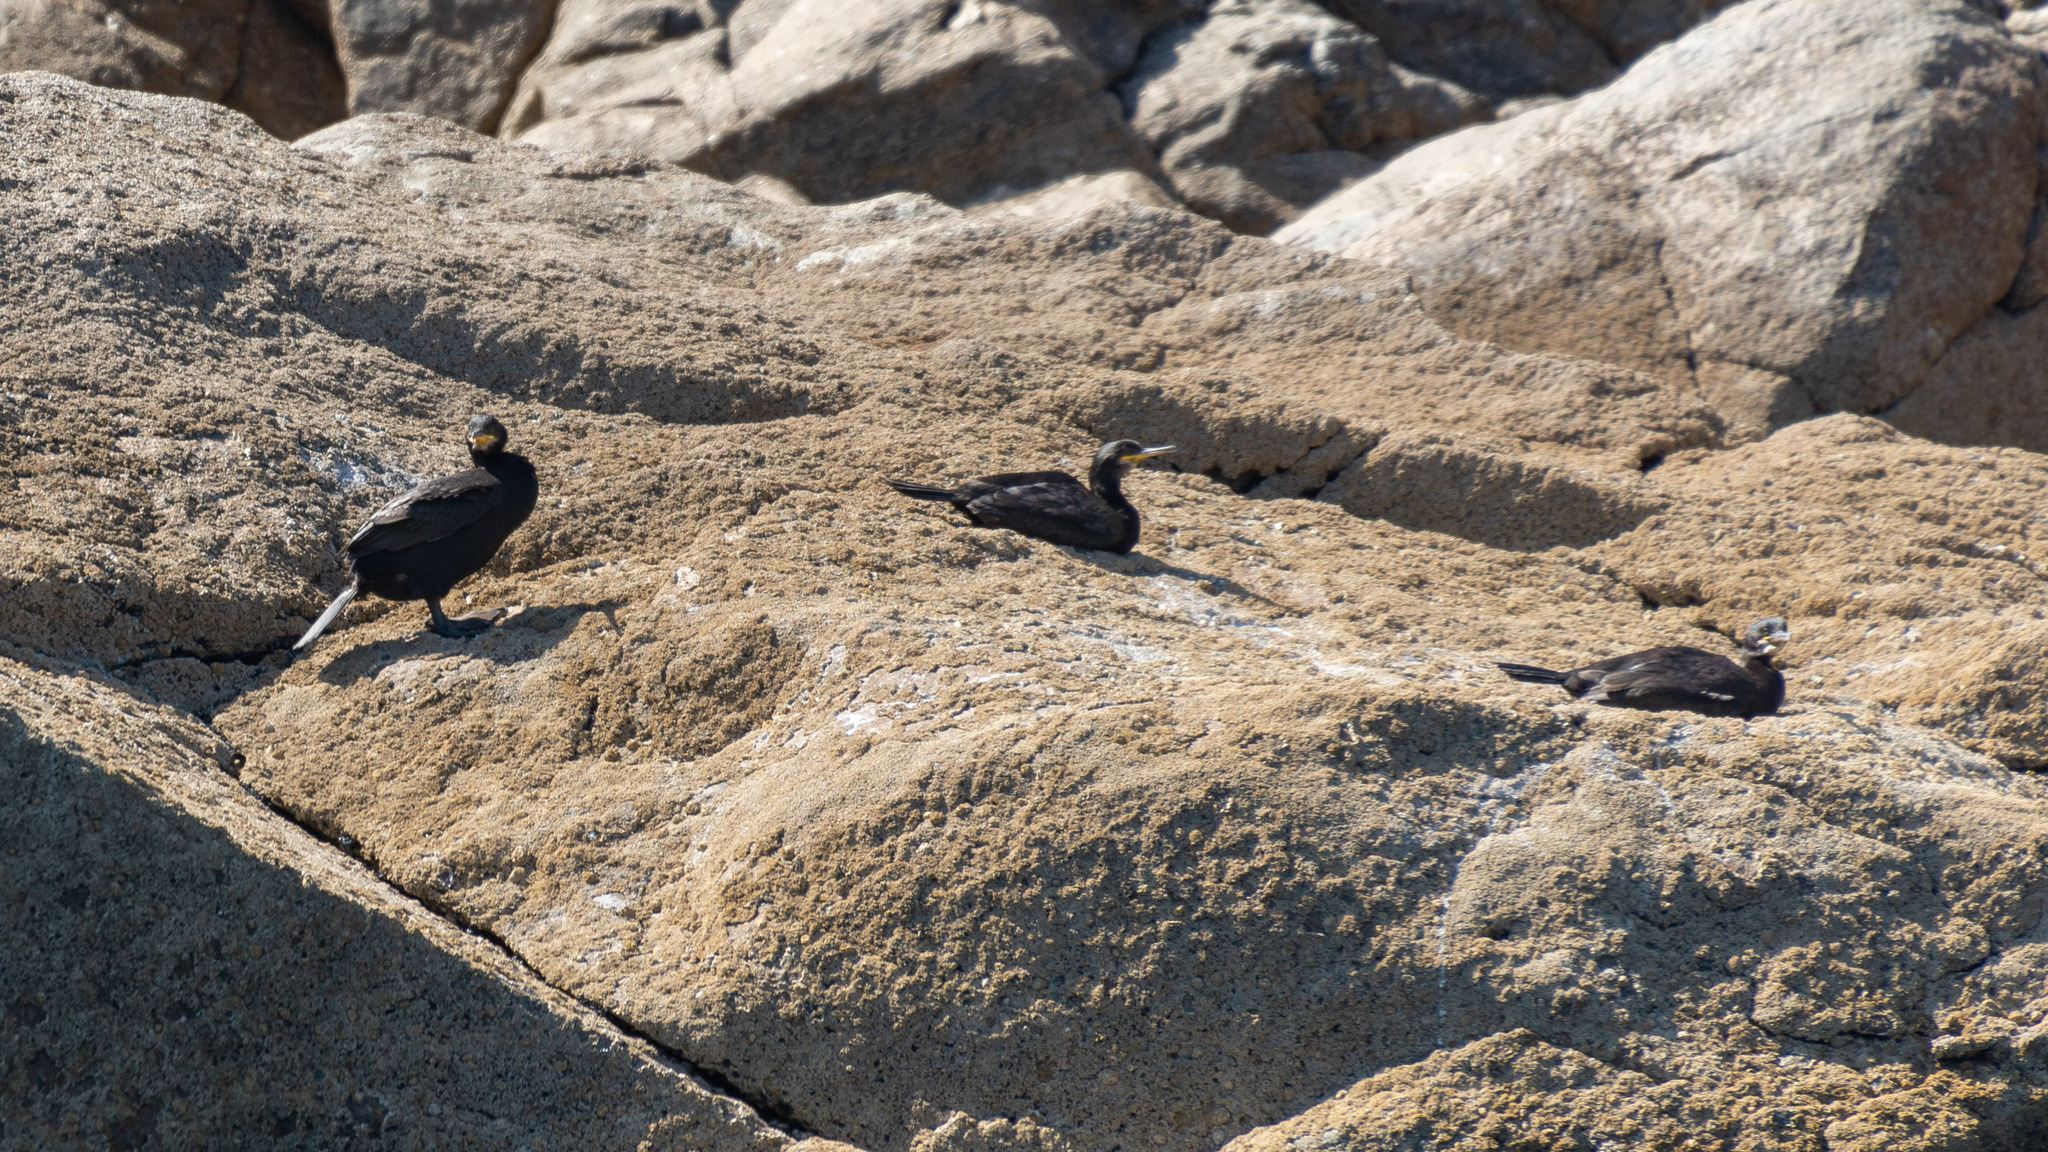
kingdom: Animalia
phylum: Chordata
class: Aves
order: Suliformes
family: Phalacrocoracidae
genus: Phalacrocorax
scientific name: Phalacrocorax aristotelis
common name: European shag
